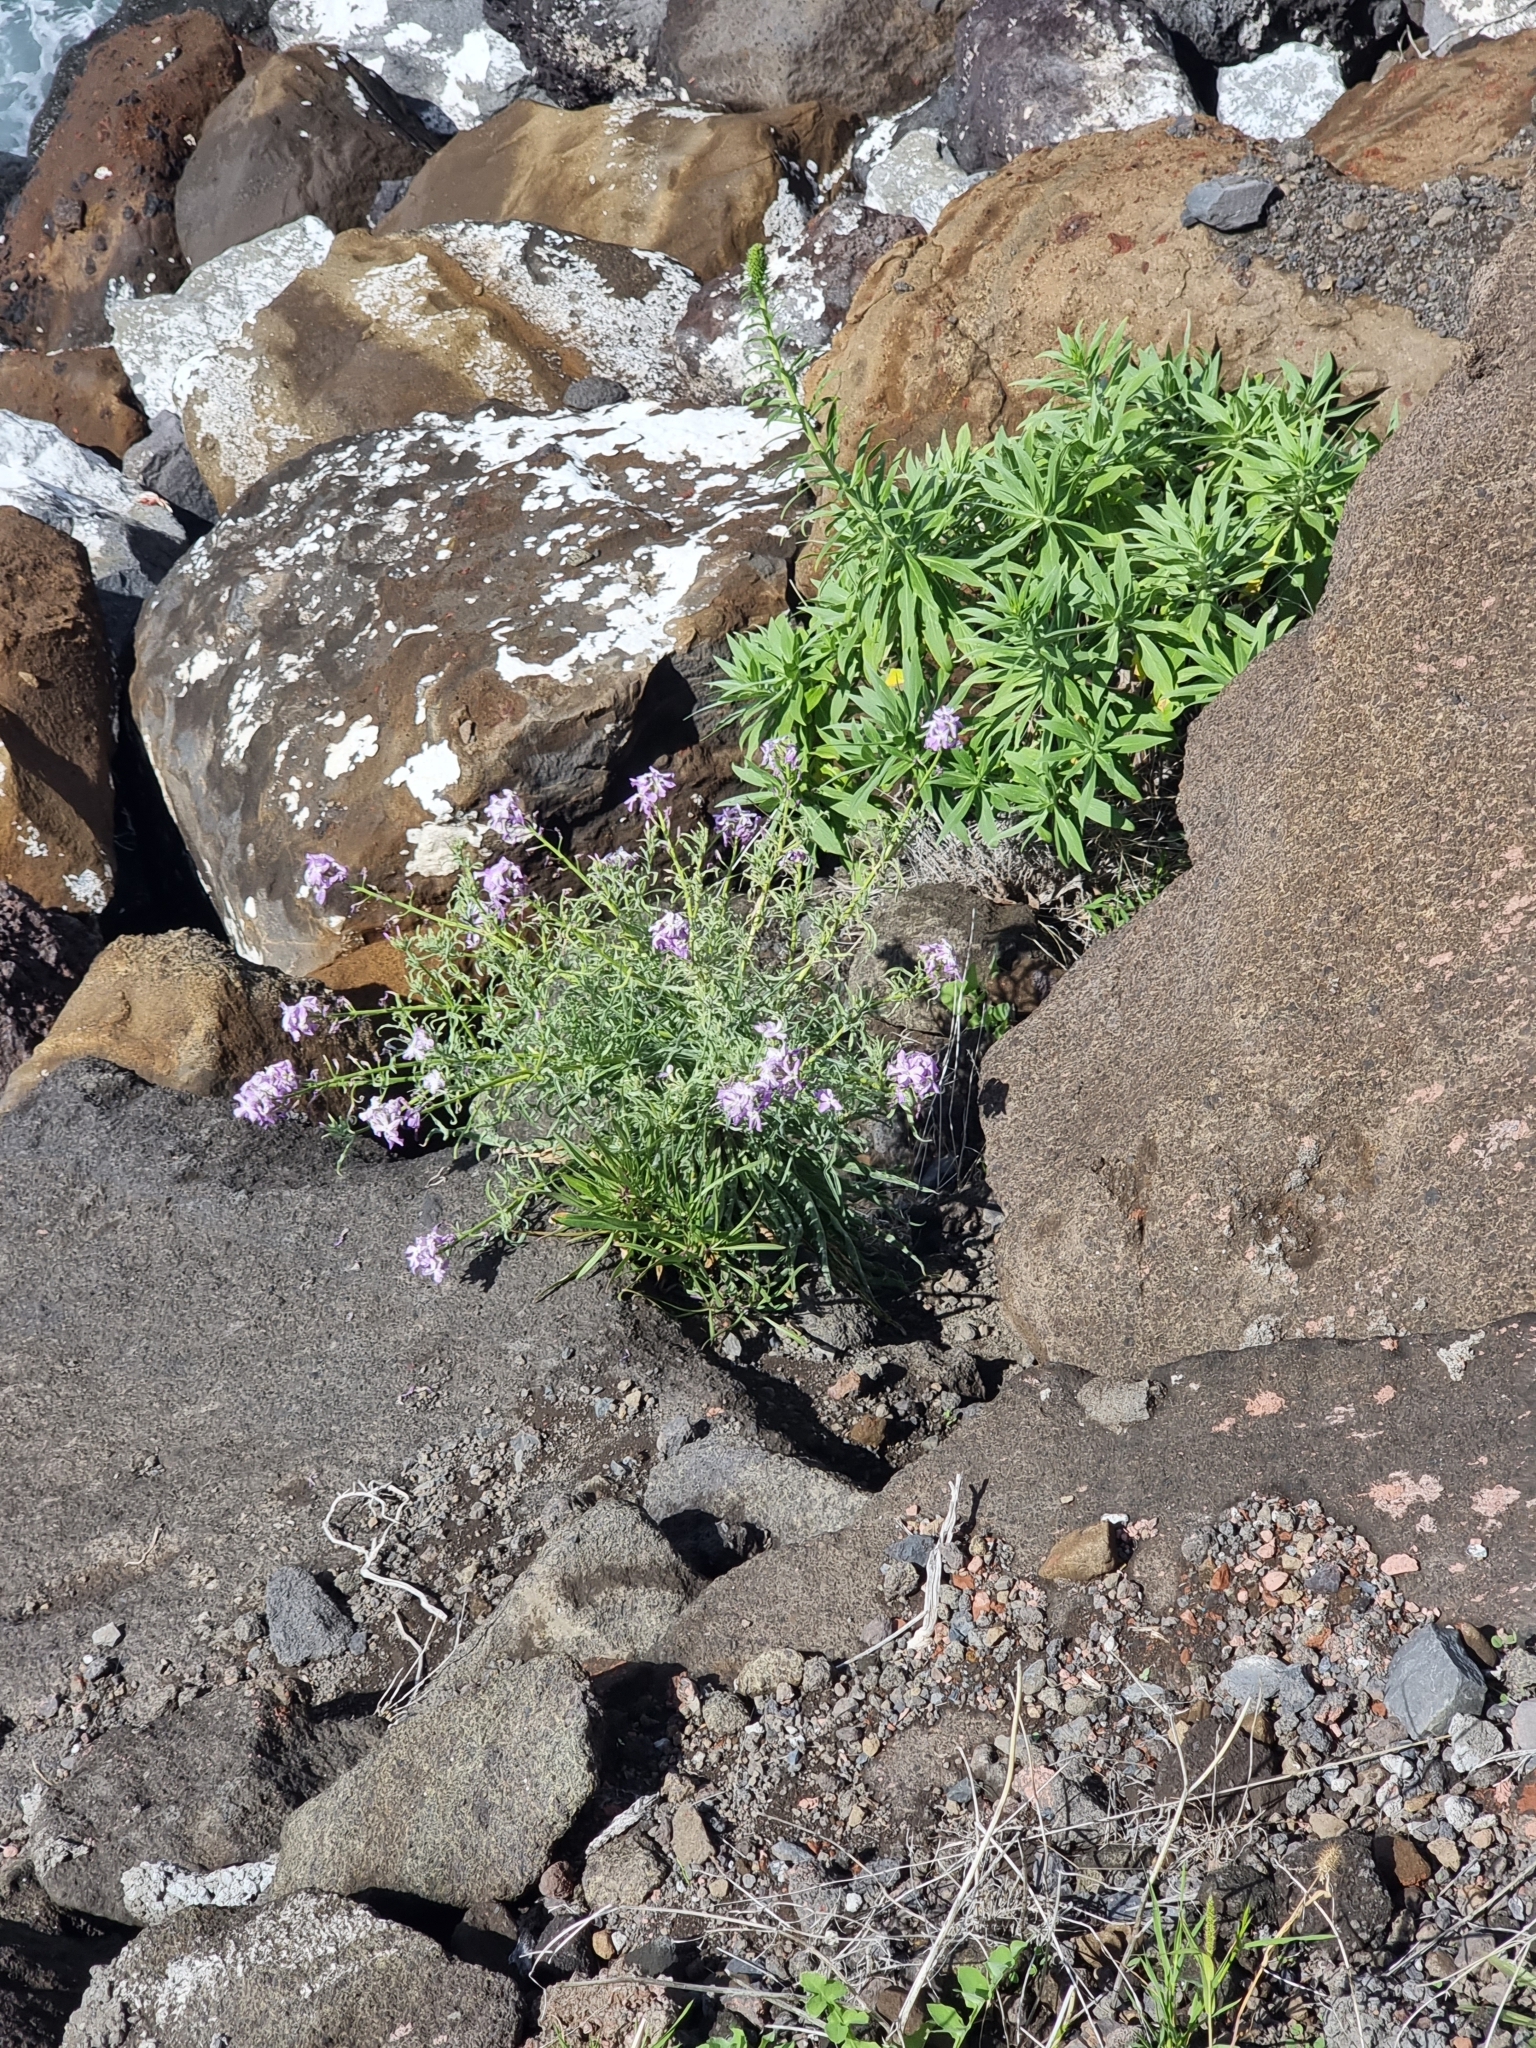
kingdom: Plantae
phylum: Tracheophyta
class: Magnoliopsida
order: Brassicales
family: Brassicaceae
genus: Matthiola
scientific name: Matthiola maderensis
